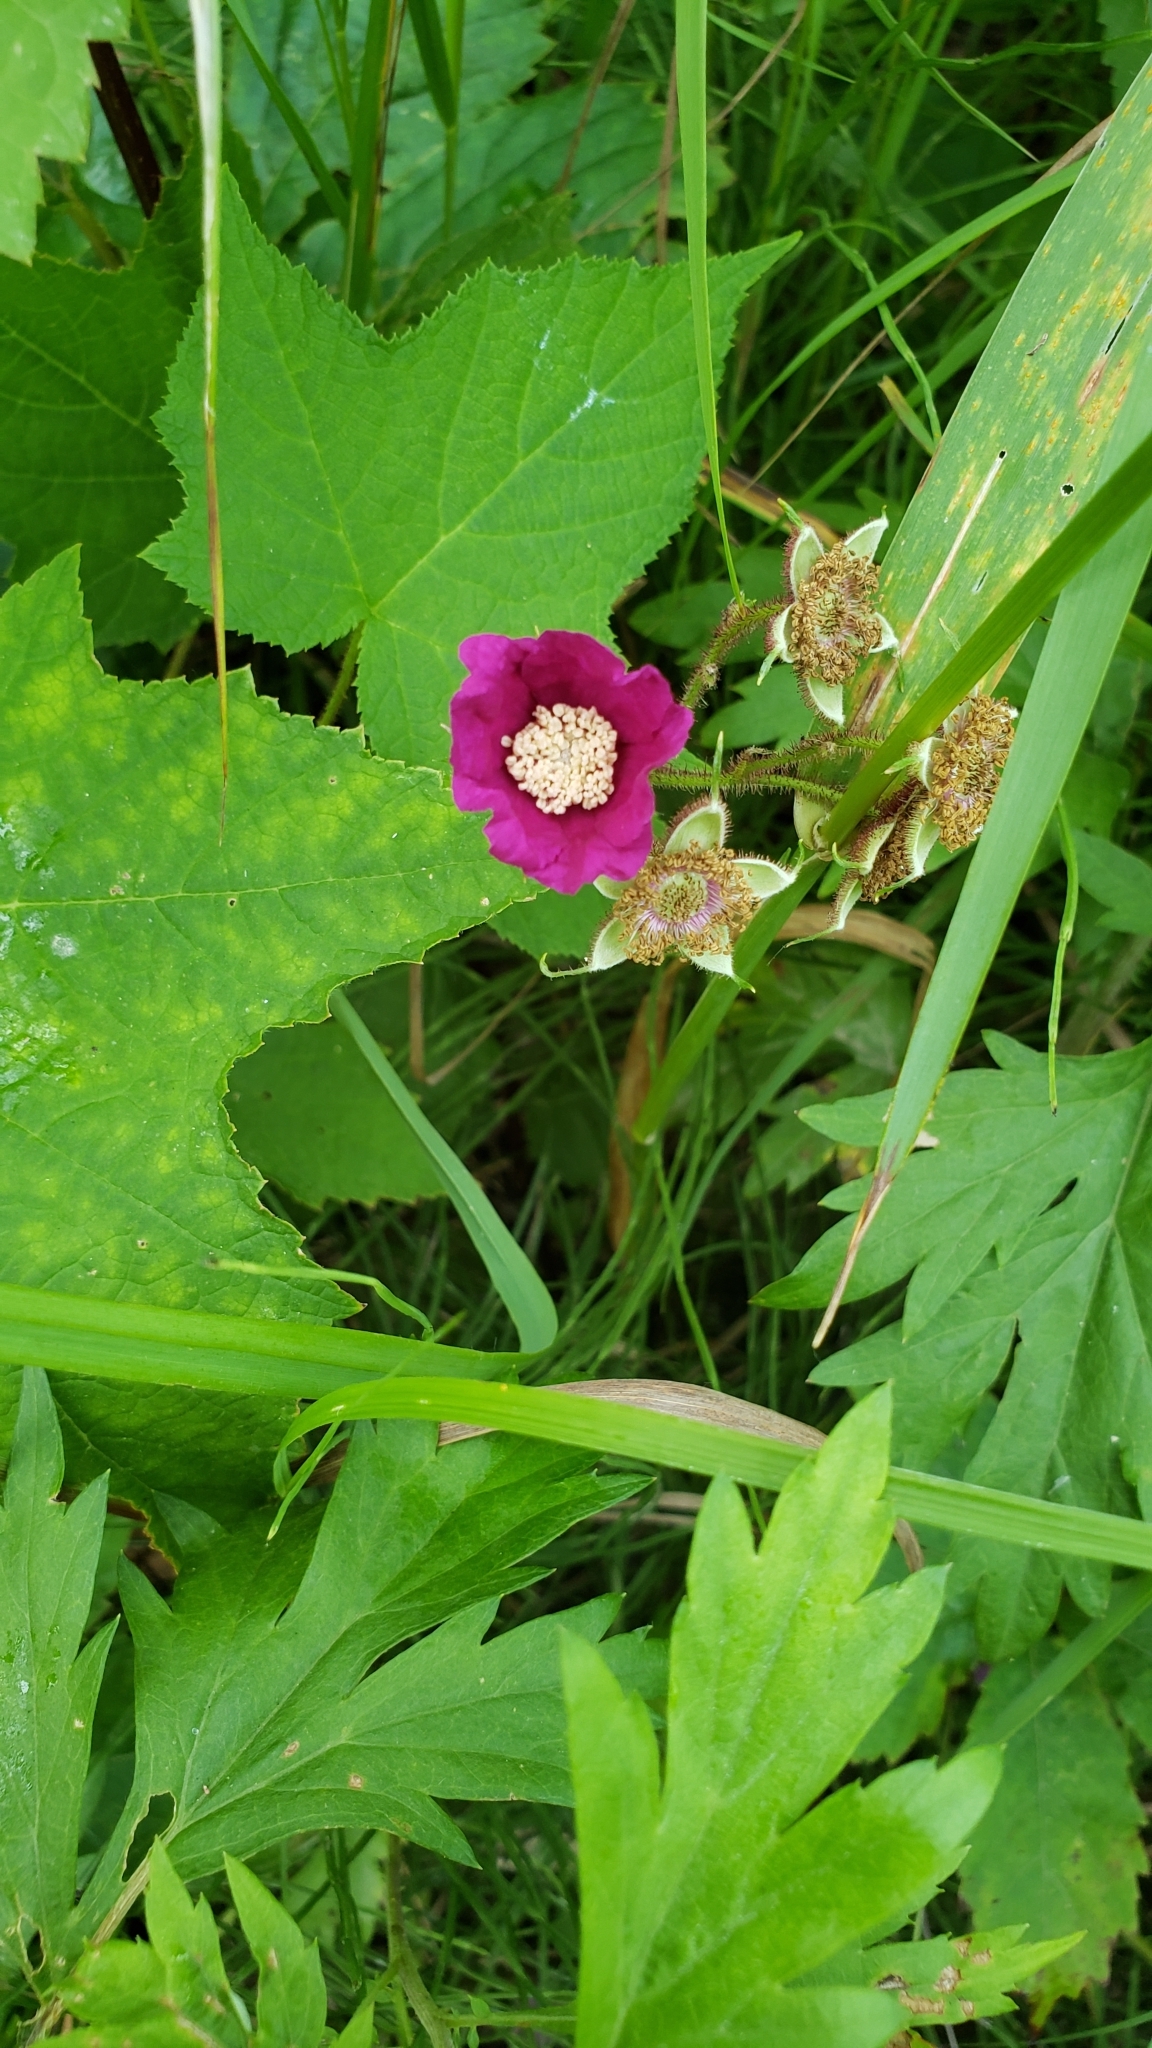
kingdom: Plantae
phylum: Tracheophyta
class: Magnoliopsida
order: Rosales
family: Rosaceae
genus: Rubus
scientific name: Rubus odoratus
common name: Purple-flowered raspberry
